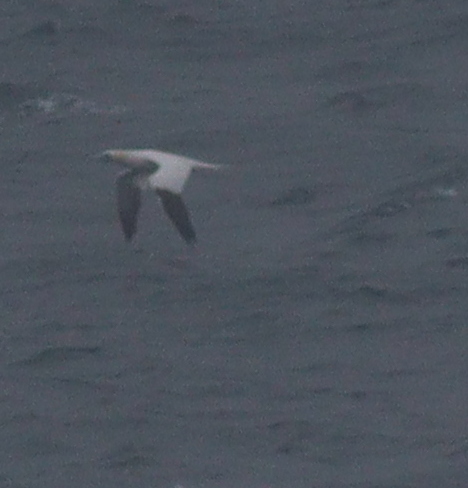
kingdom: Animalia
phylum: Chordata
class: Aves
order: Suliformes
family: Sulidae
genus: Morus
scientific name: Morus bassanus
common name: Northern gannet
